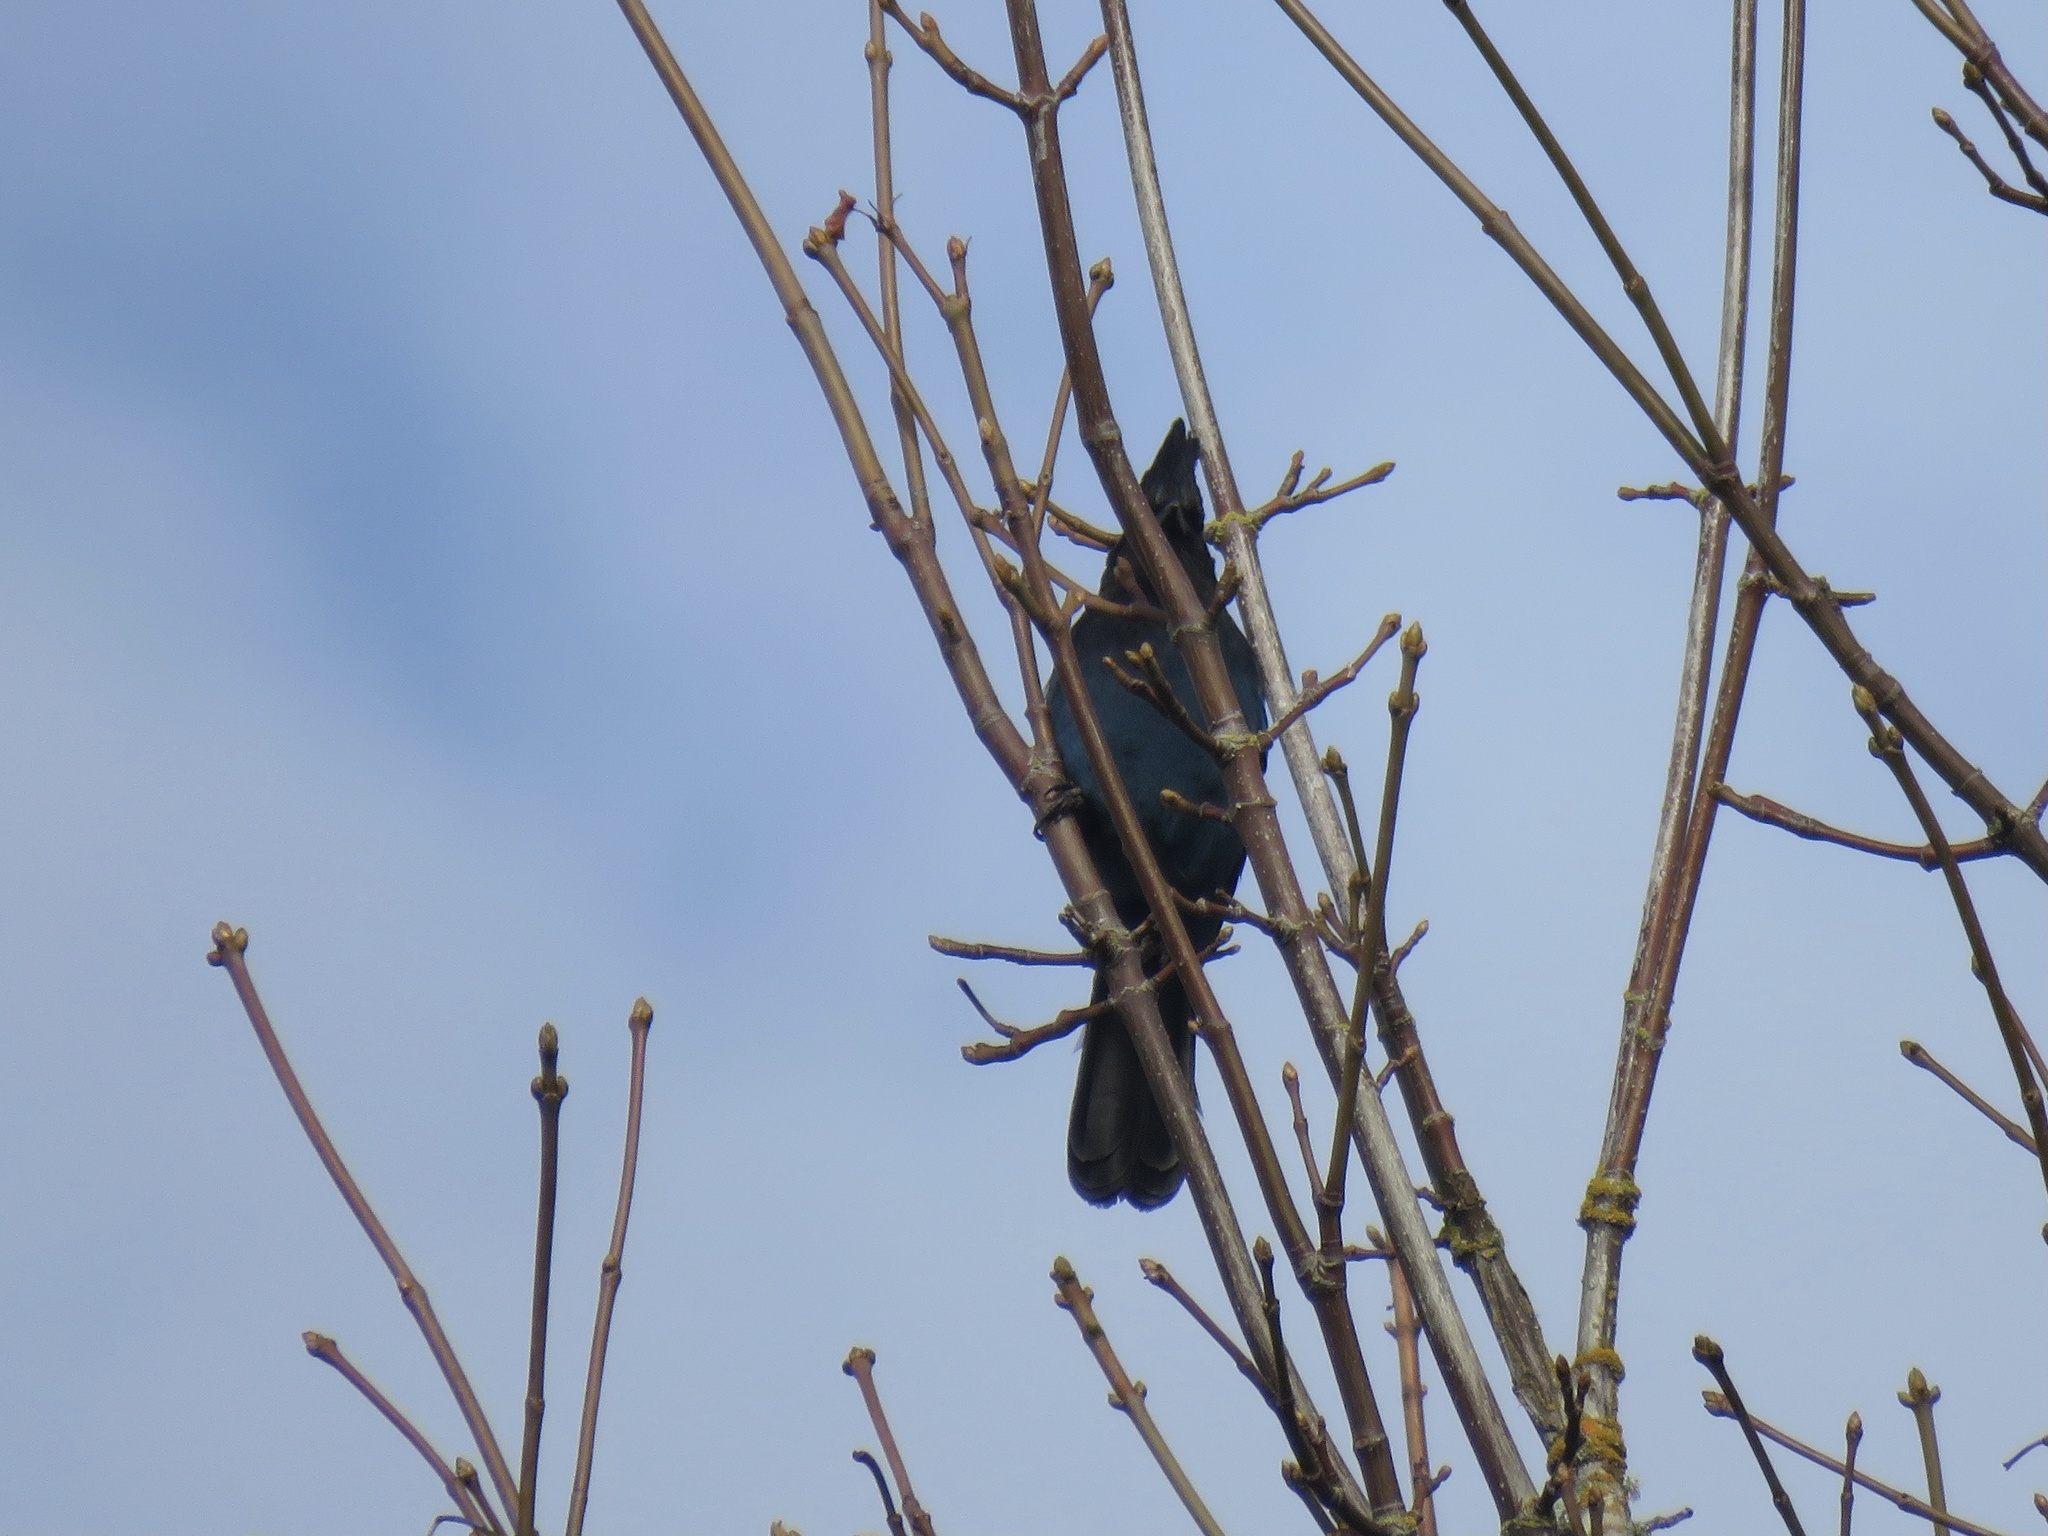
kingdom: Animalia
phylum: Chordata
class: Aves
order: Passeriformes
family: Corvidae
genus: Cyanocitta
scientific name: Cyanocitta stelleri
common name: Steller's jay
